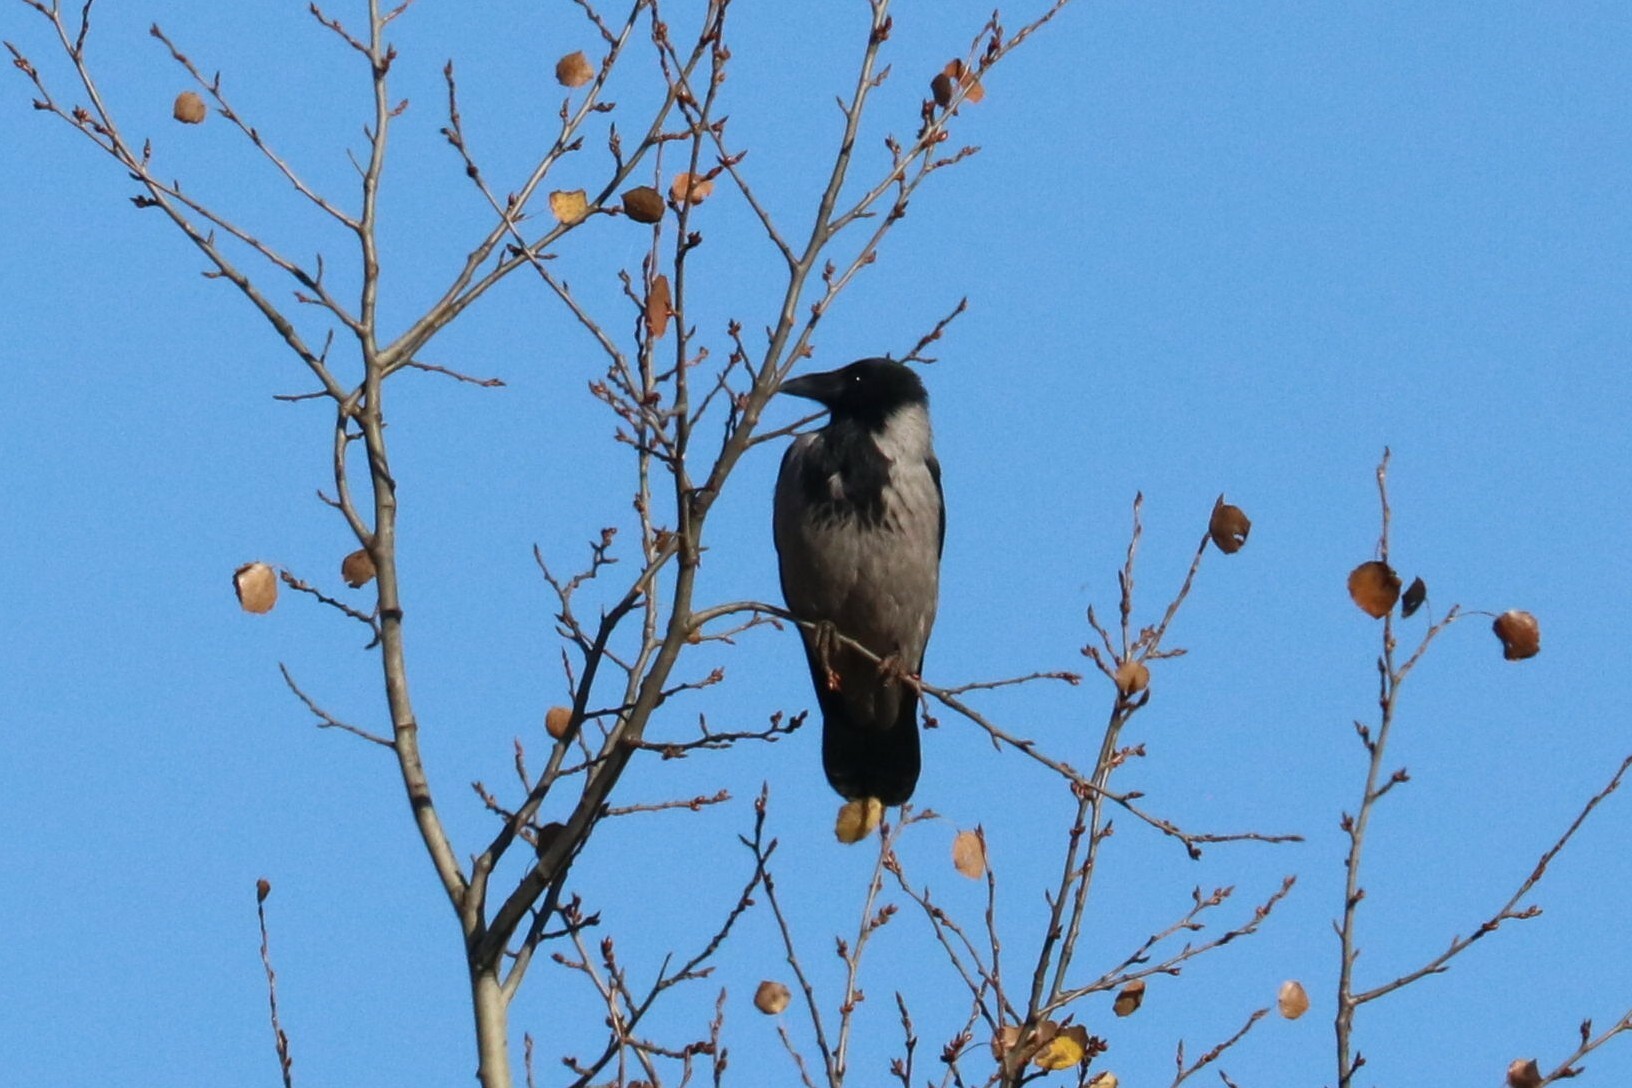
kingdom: Animalia
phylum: Chordata
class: Aves
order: Passeriformes
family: Corvidae
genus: Corvus
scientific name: Corvus cornix
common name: Hooded crow
